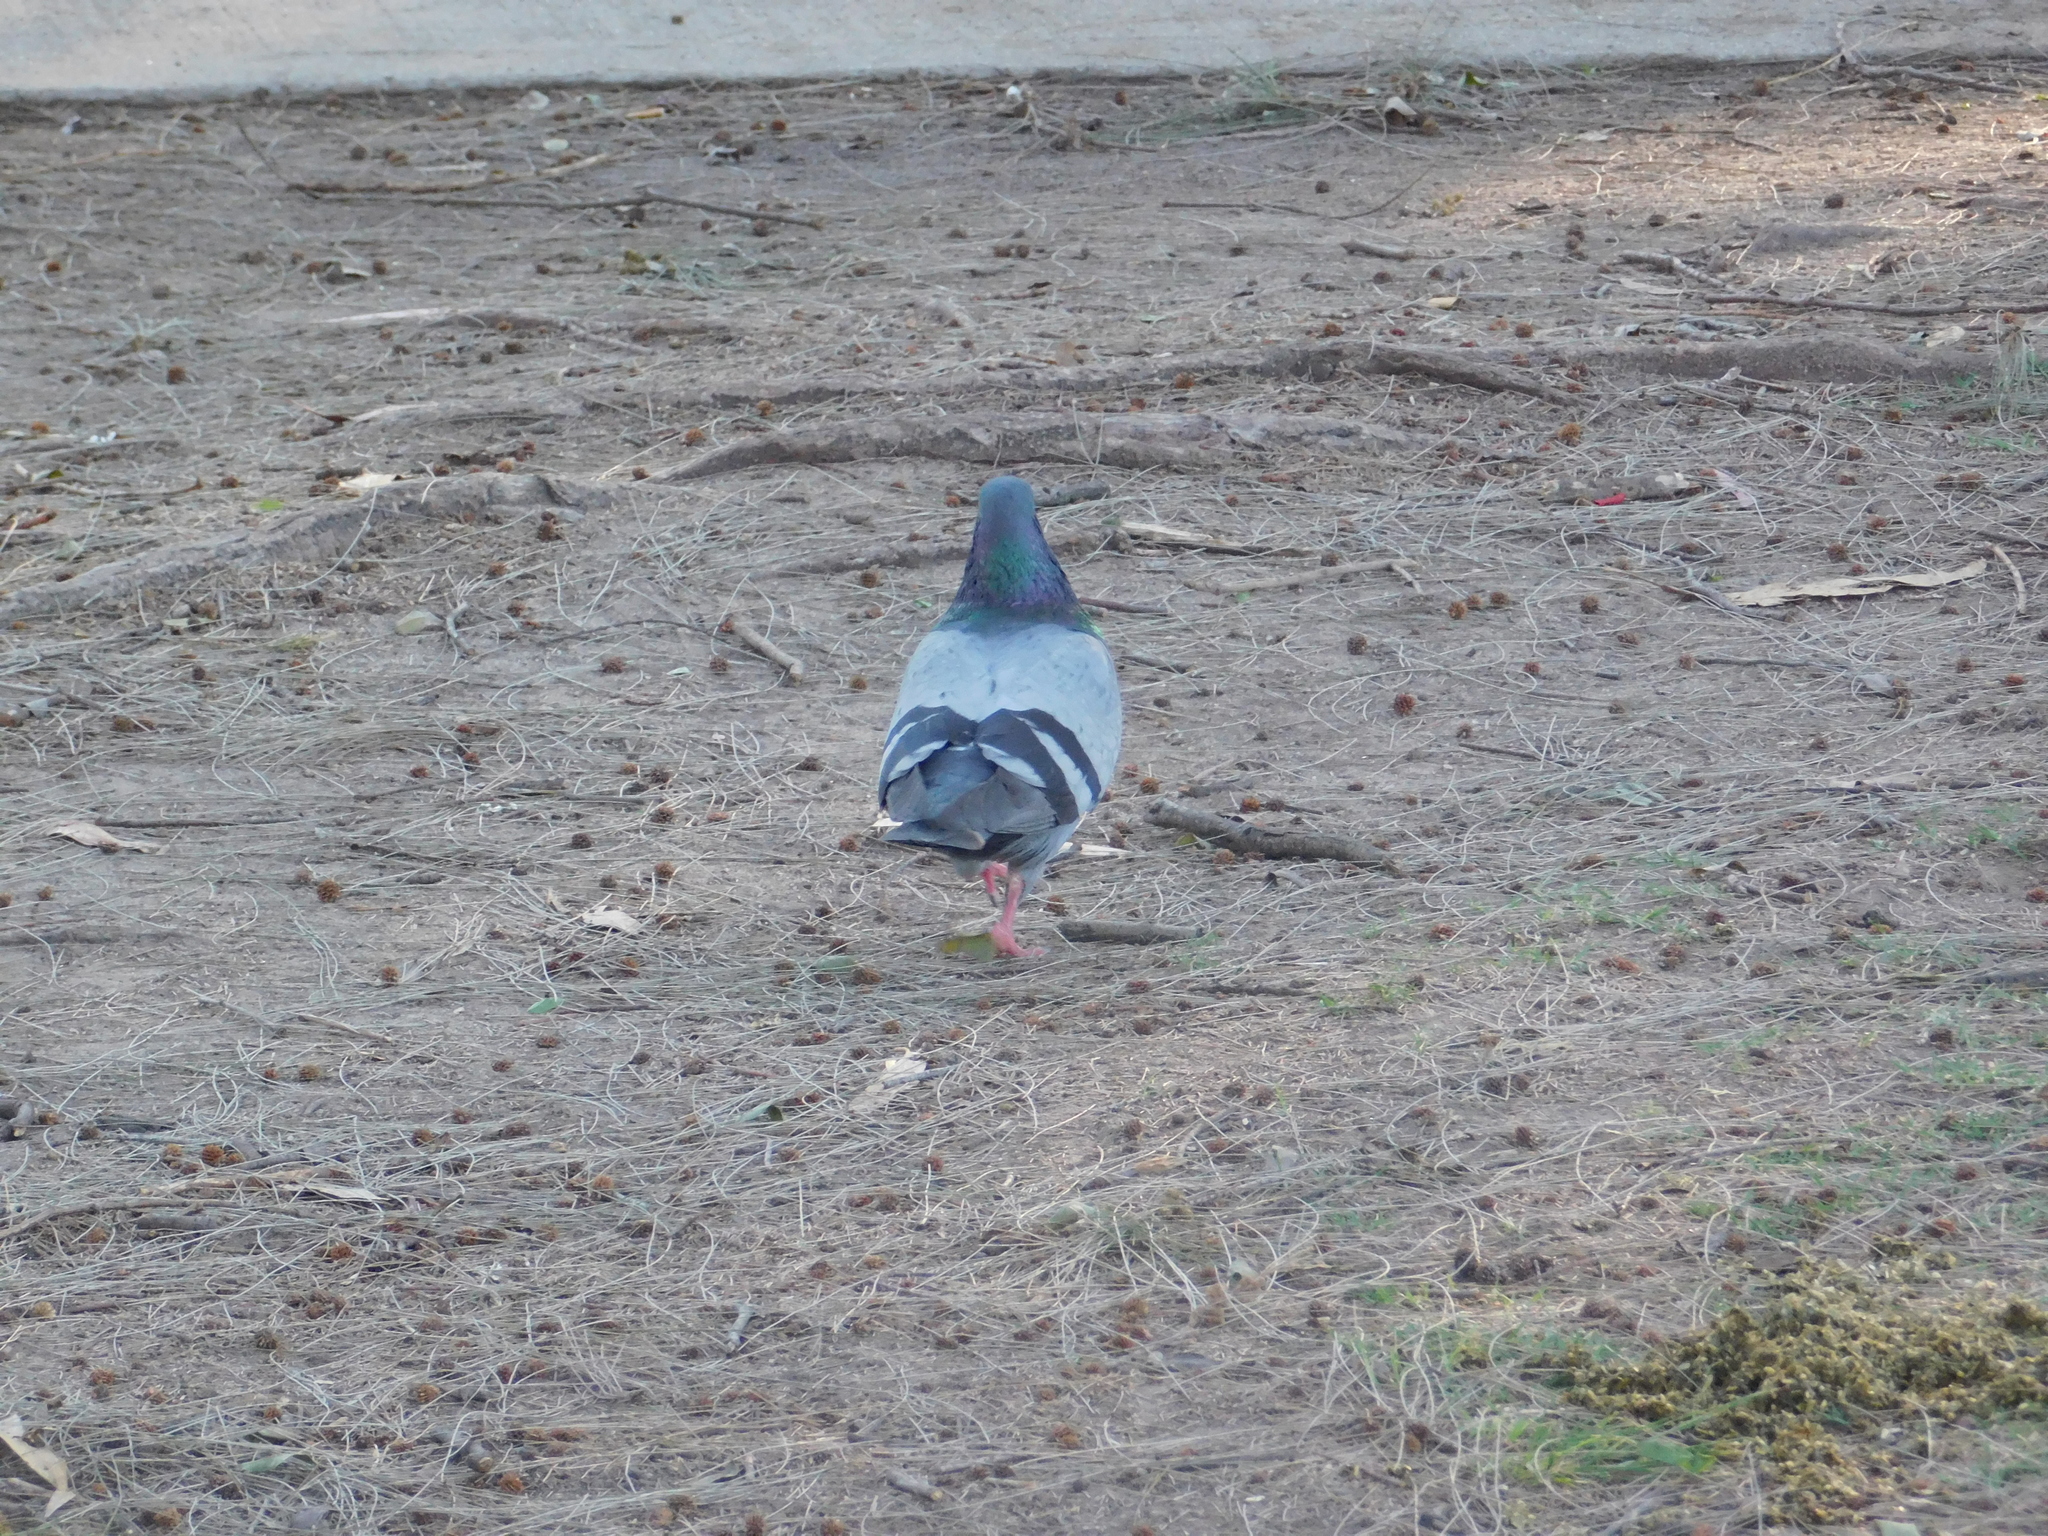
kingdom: Animalia
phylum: Chordata
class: Aves
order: Columbiformes
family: Columbidae
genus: Columba
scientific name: Columba livia
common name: Rock pigeon
